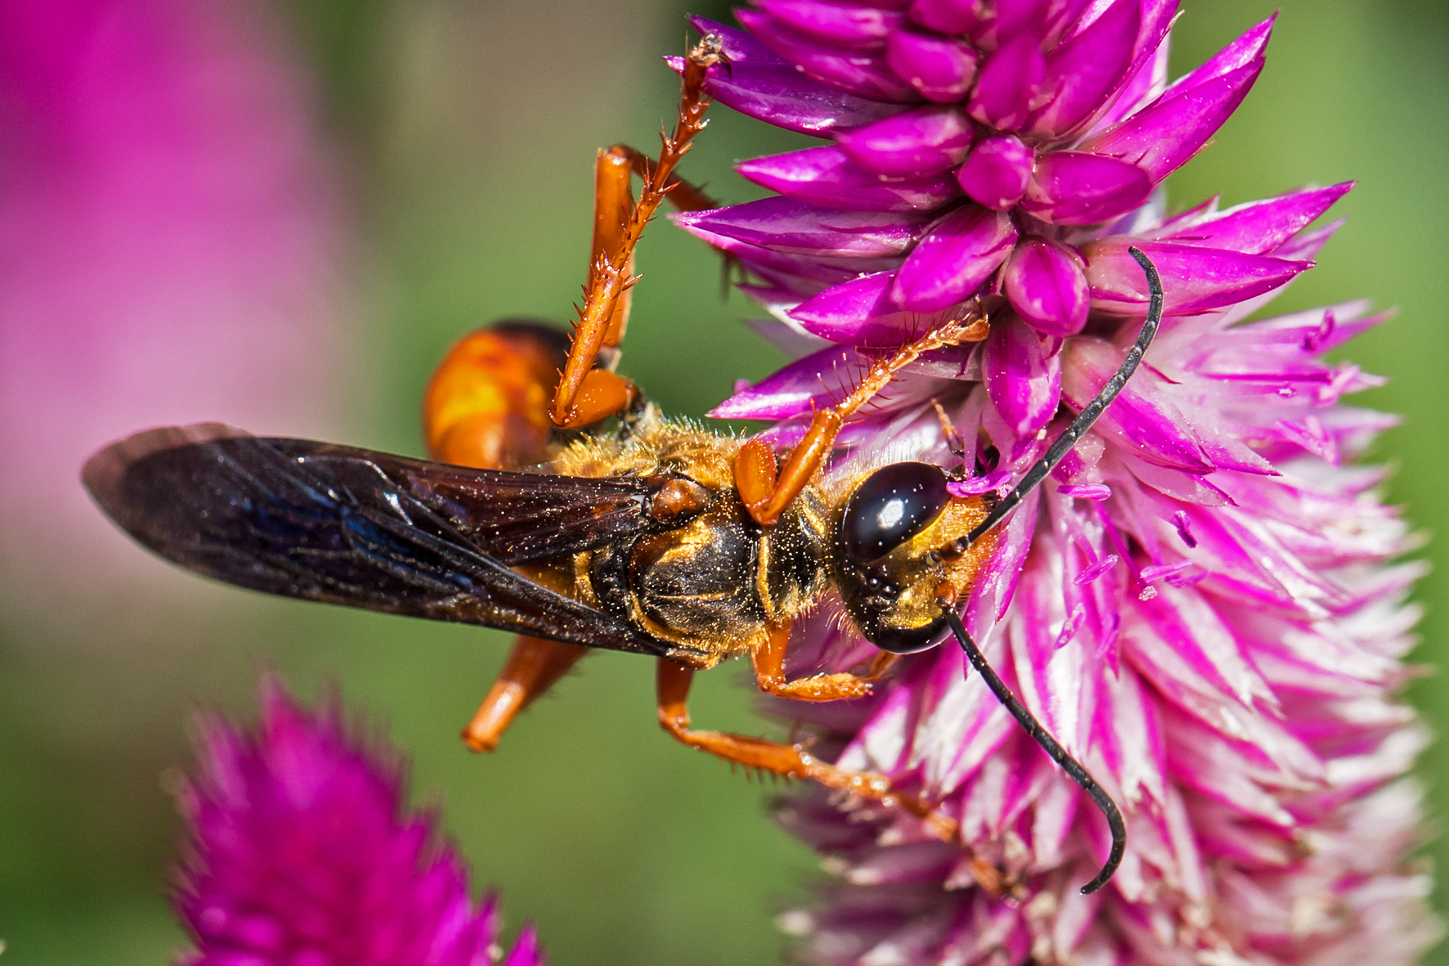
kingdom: Animalia
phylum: Arthropoda
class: Insecta
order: Hymenoptera
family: Sphecidae
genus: Sphex
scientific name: Sphex ichneumoneus
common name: Great golden digger wasp
